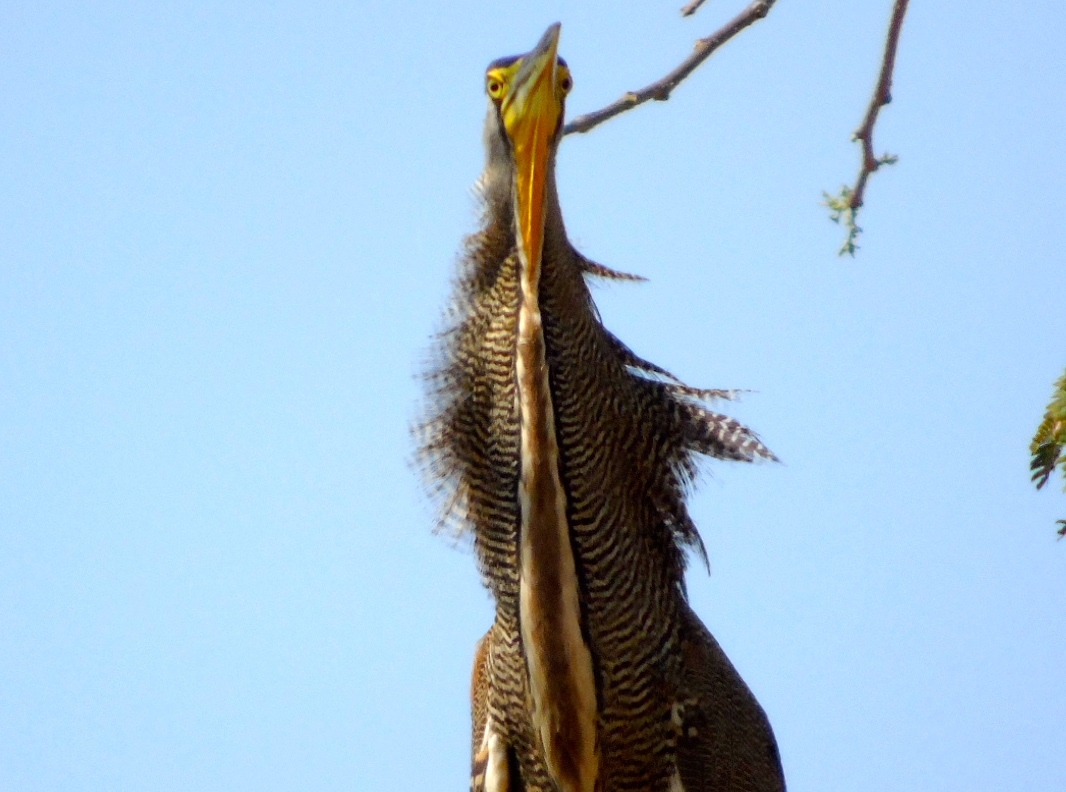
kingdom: Animalia
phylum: Chordata
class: Aves
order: Pelecaniformes
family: Ardeidae
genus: Tigrisoma
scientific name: Tigrisoma mexicanum
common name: Bare-throated tiger-heron
